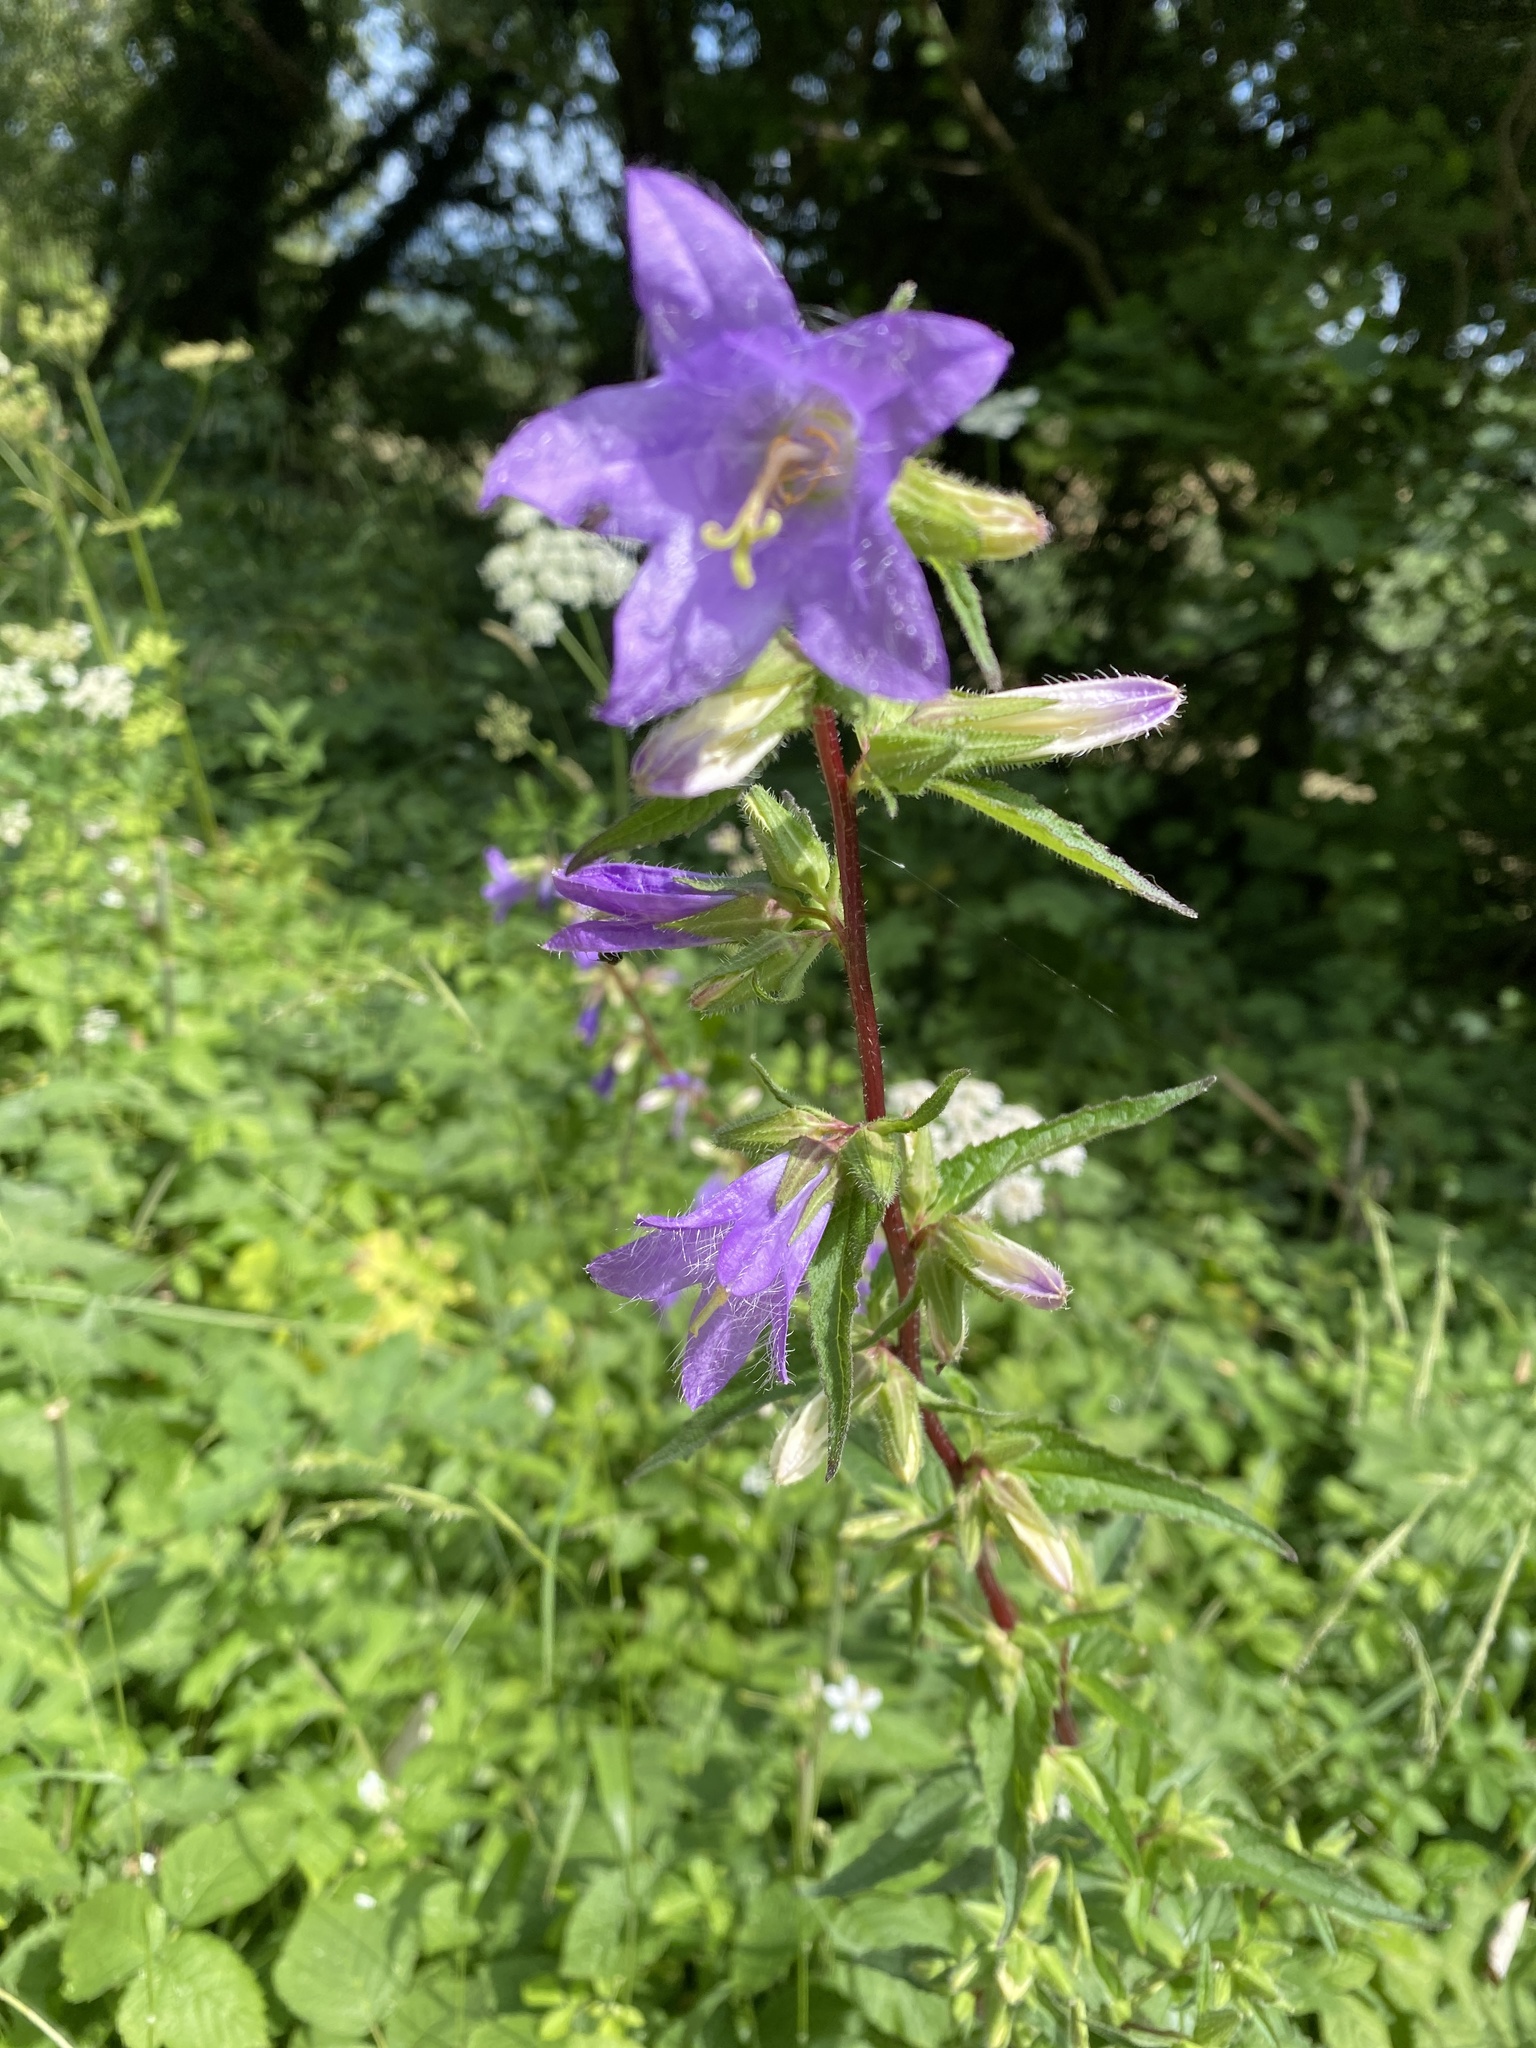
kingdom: Plantae
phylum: Tracheophyta
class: Magnoliopsida
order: Asterales
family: Campanulaceae
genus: Campanula
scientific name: Campanula trachelium
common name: Nettle-leaved bellflower
